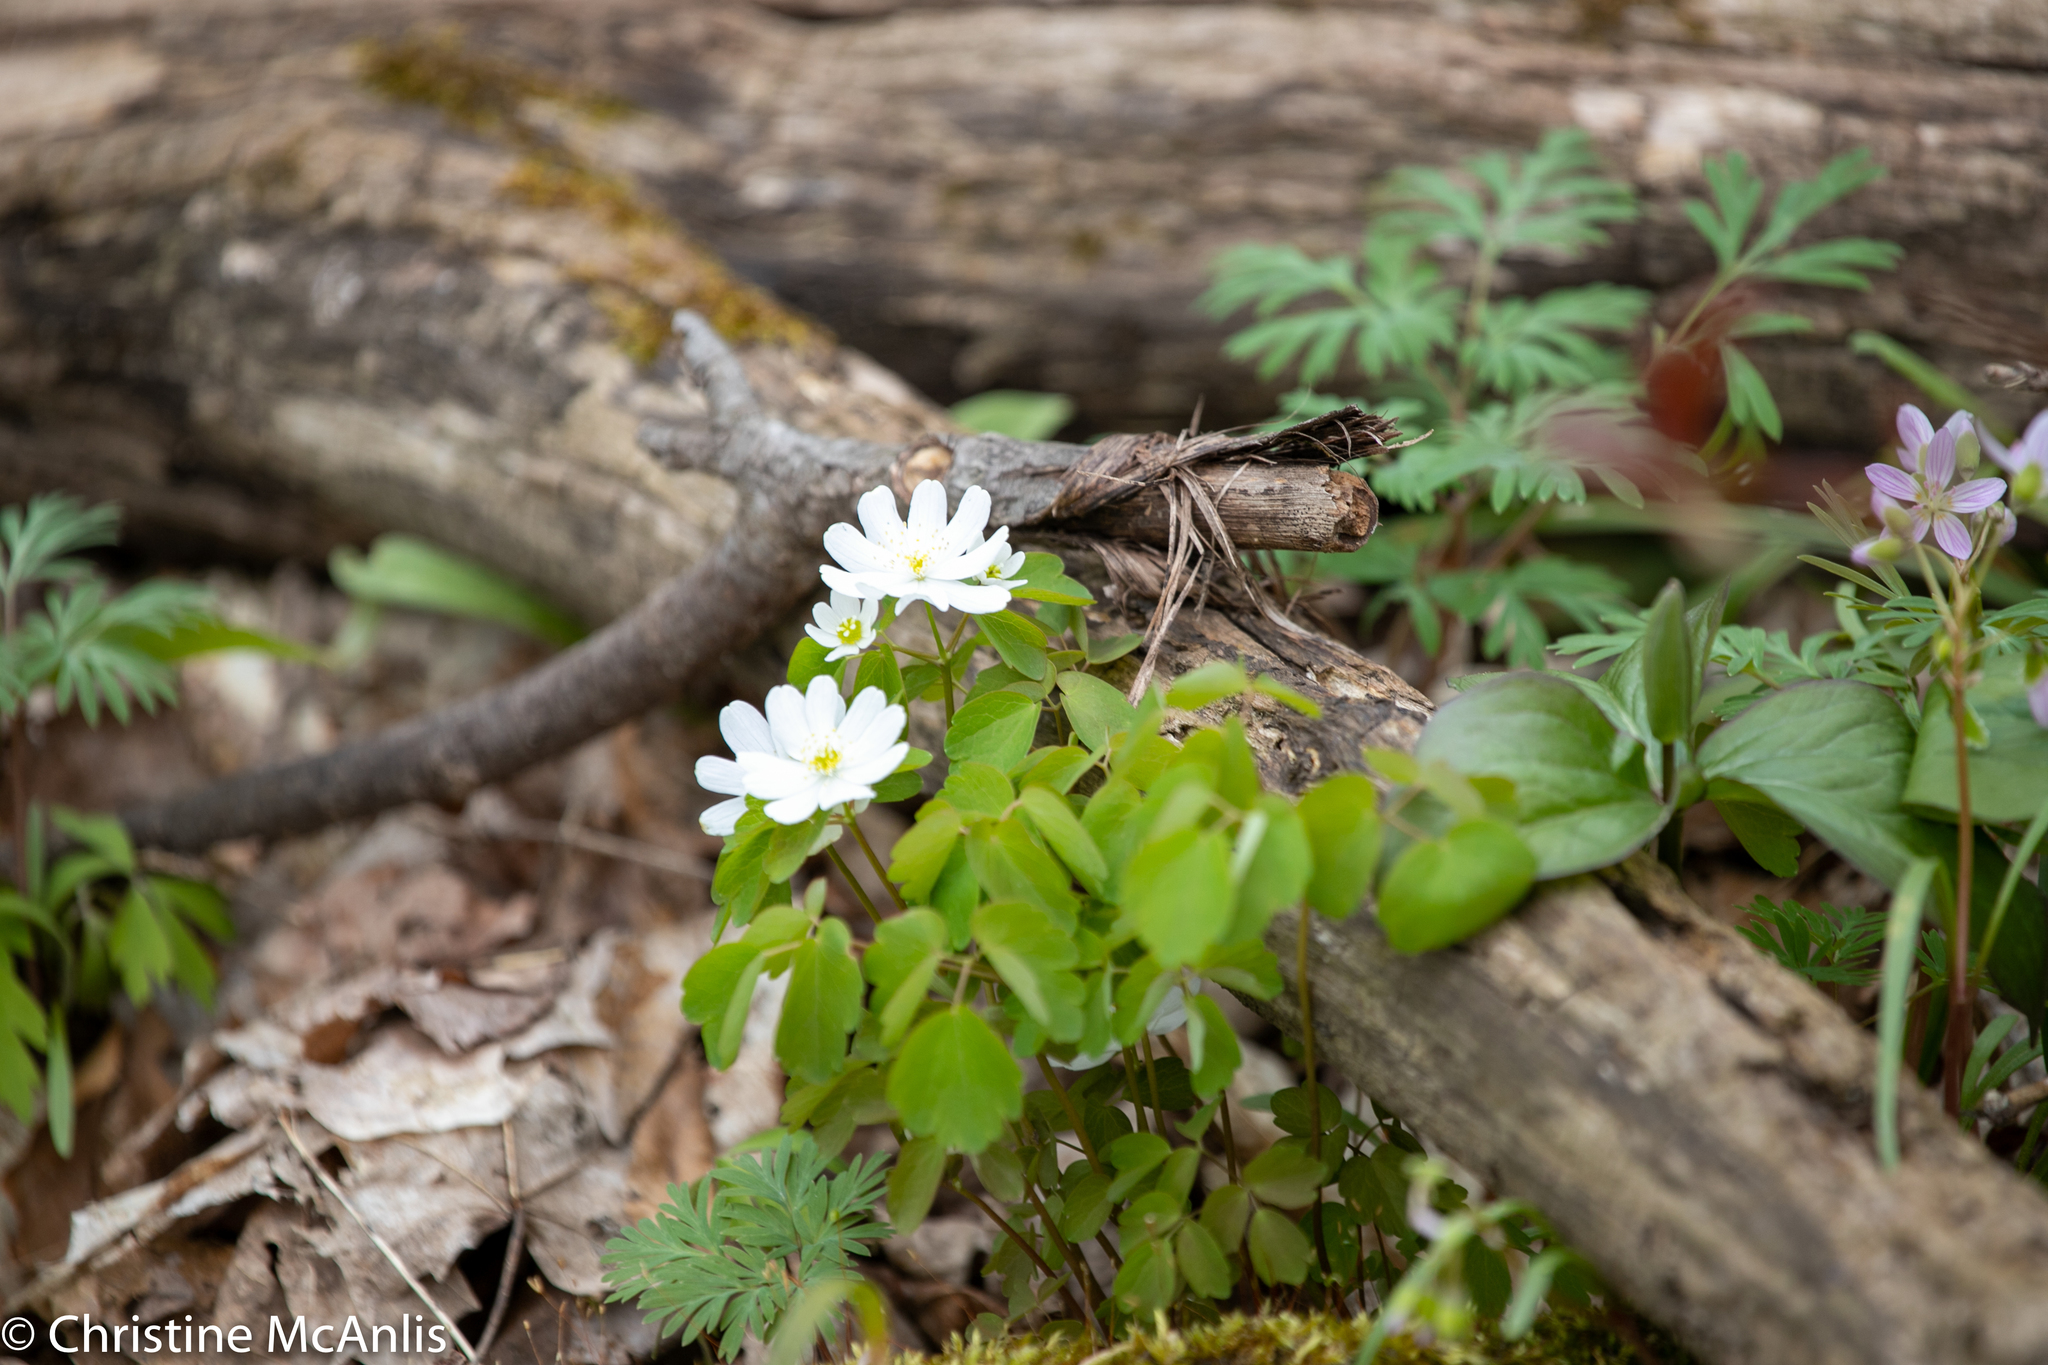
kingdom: Plantae
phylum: Tracheophyta
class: Magnoliopsida
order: Ranunculales
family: Ranunculaceae
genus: Thalictrum
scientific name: Thalictrum thalictroides
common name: Rue-anemone
